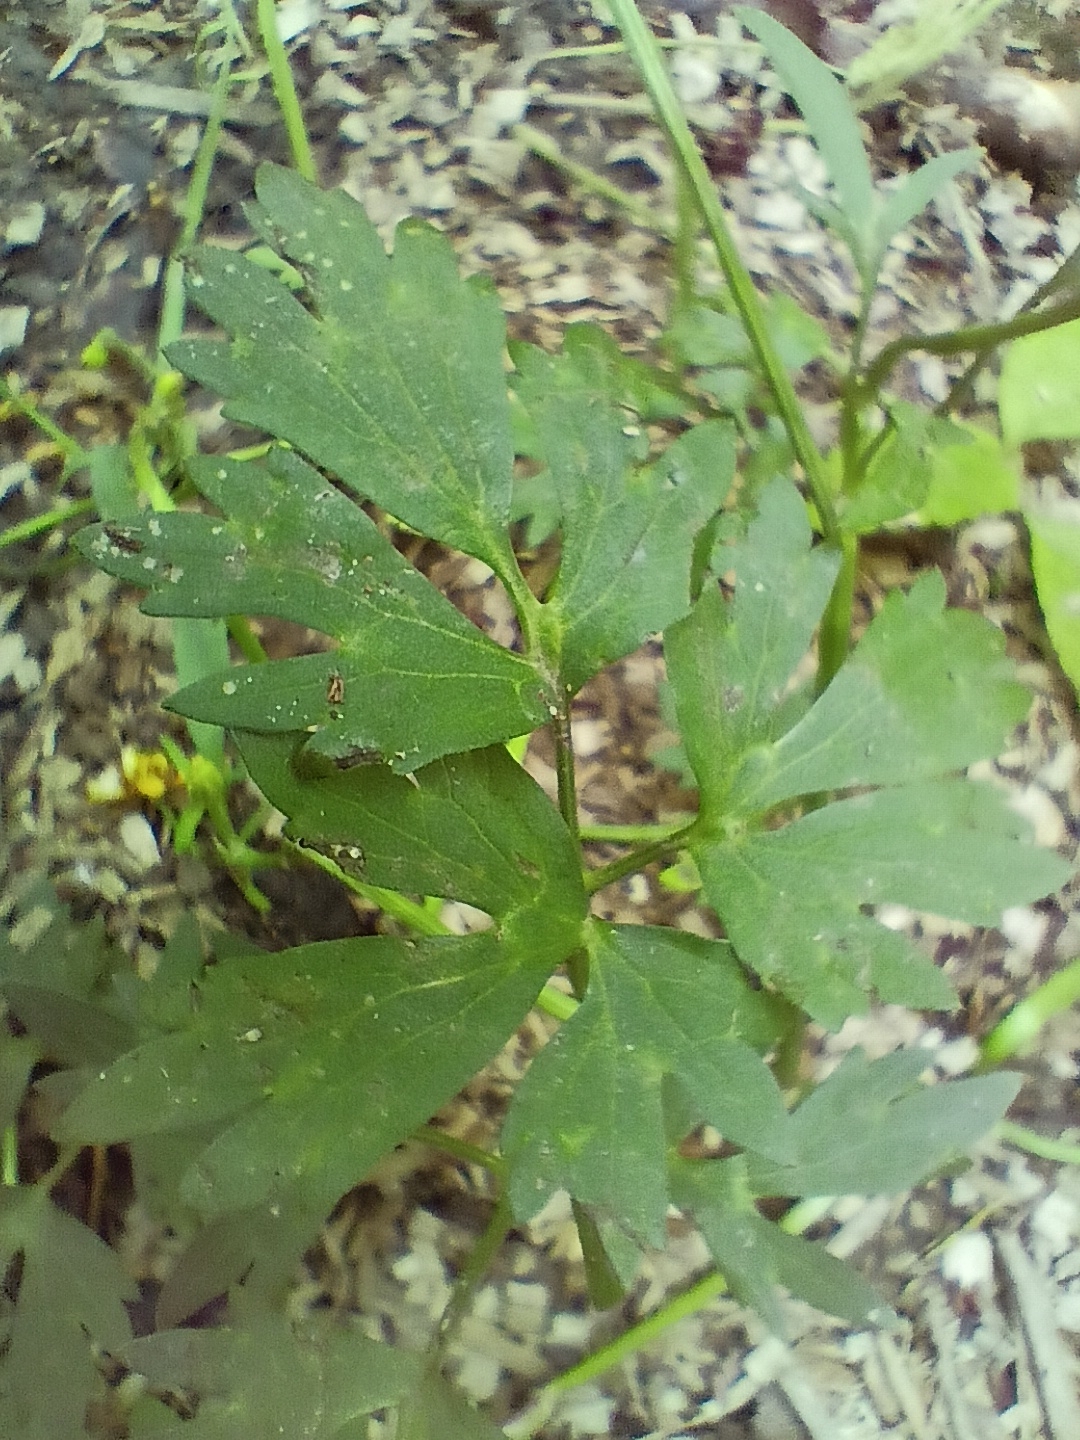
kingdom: Plantae
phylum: Tracheophyta
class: Magnoliopsida
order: Ranunculales
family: Ranunculaceae
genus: Ranunculus
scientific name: Ranunculus repens
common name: Creeping buttercup
